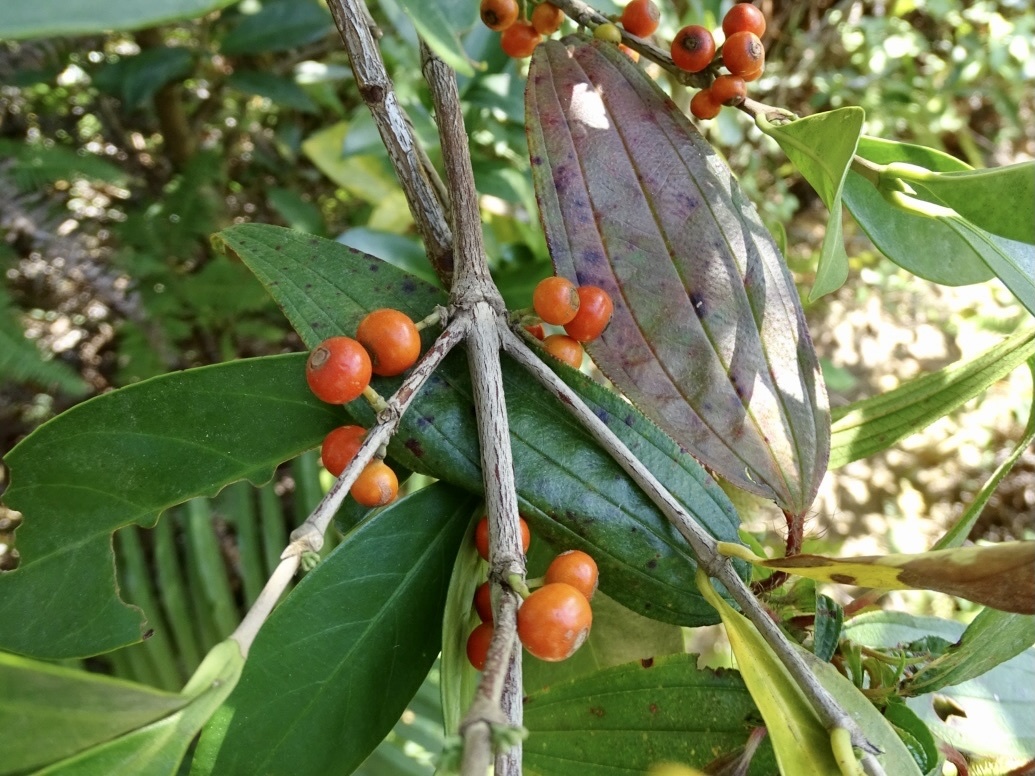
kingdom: Plantae
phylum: Tracheophyta
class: Magnoliopsida
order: Gentianales
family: Rubiaceae
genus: Diplospora
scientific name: Diplospora dubia
